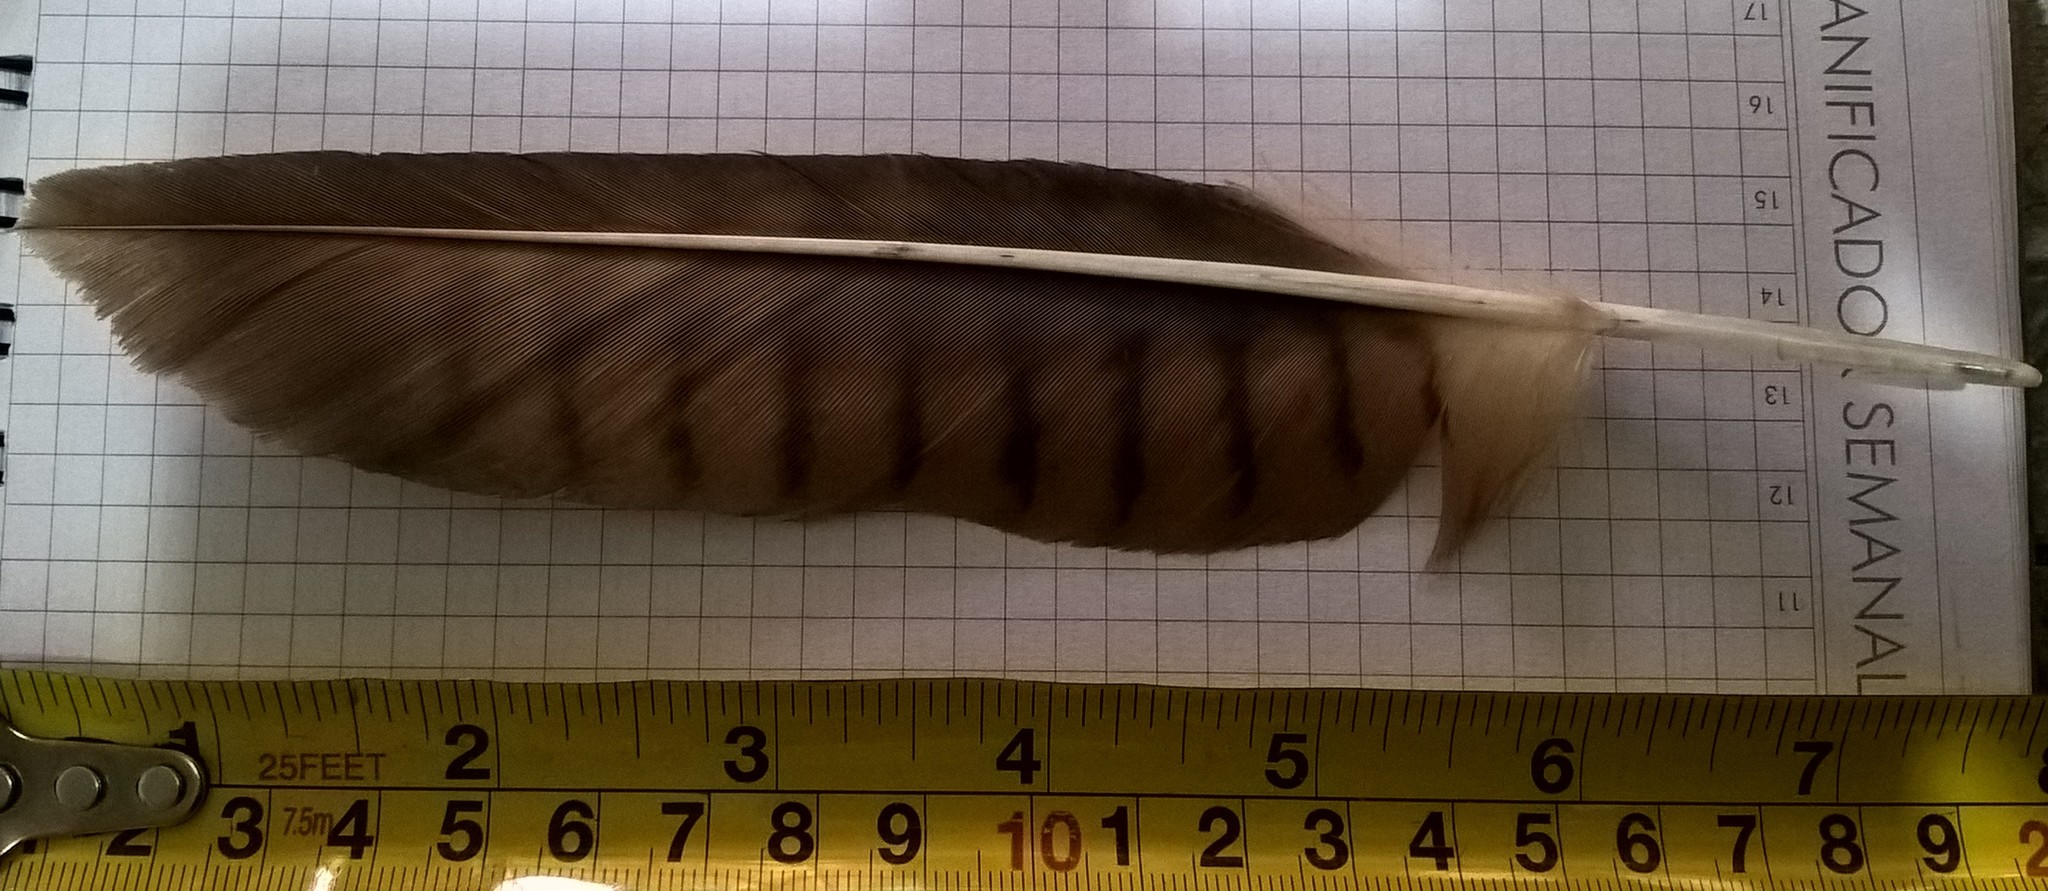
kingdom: Animalia
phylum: Chordata
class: Aves
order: Falconiformes
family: Falconidae
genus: Daptrius
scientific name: Daptrius
